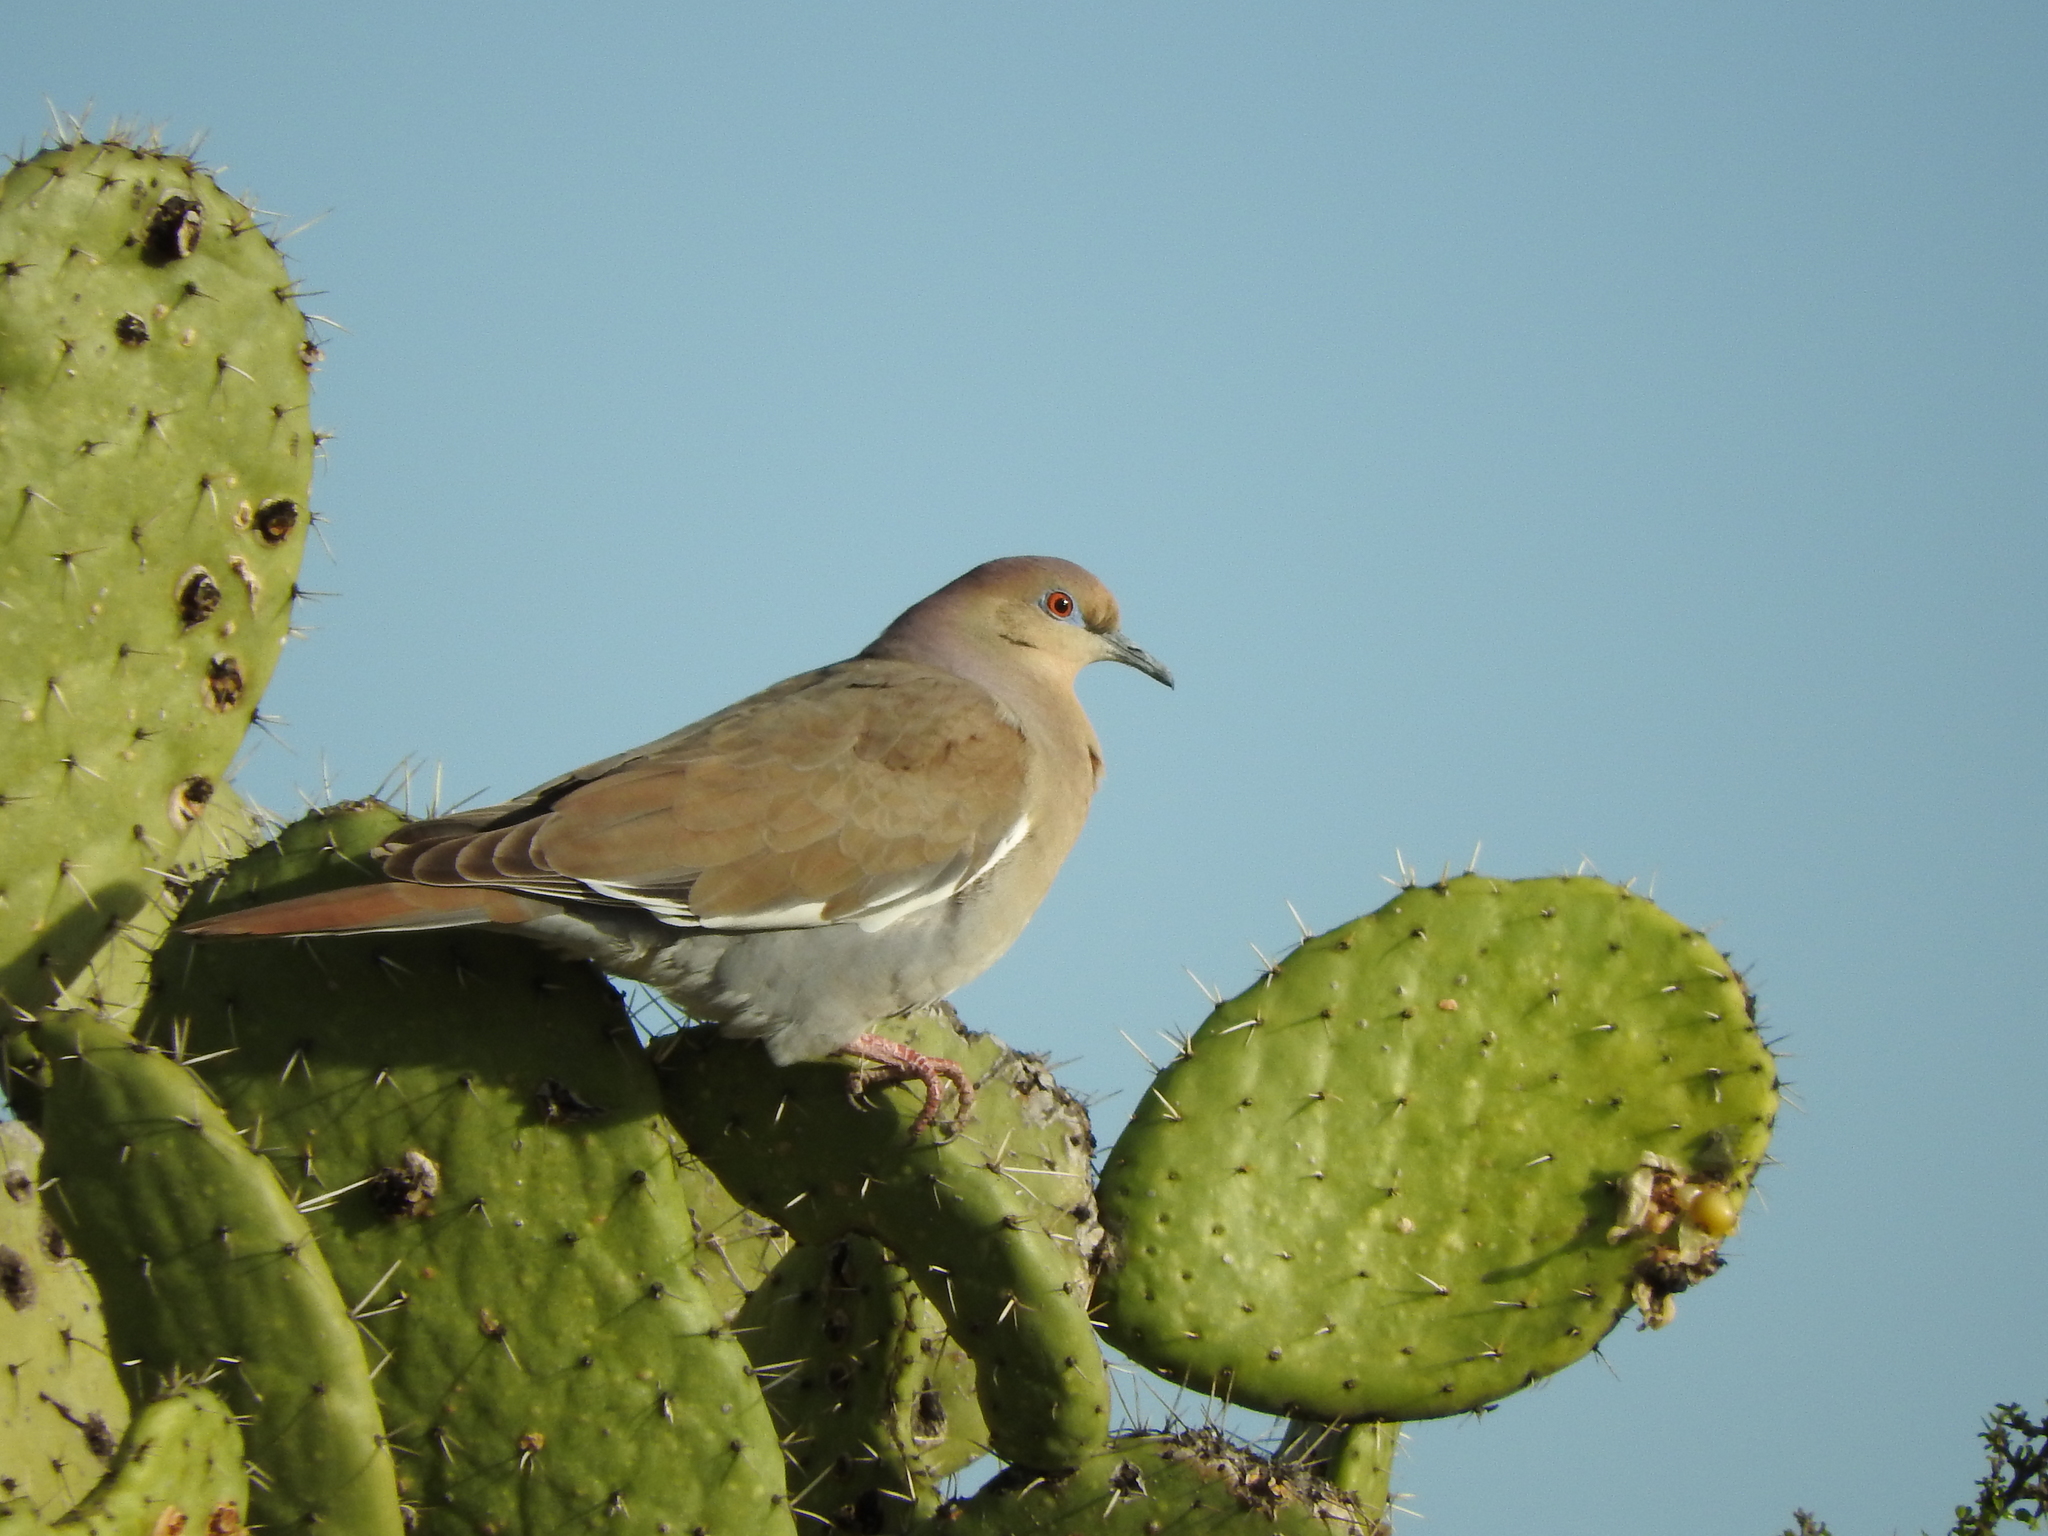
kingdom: Animalia
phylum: Chordata
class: Aves
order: Columbiformes
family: Columbidae
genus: Zenaida
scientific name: Zenaida asiatica
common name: White-winged dove
